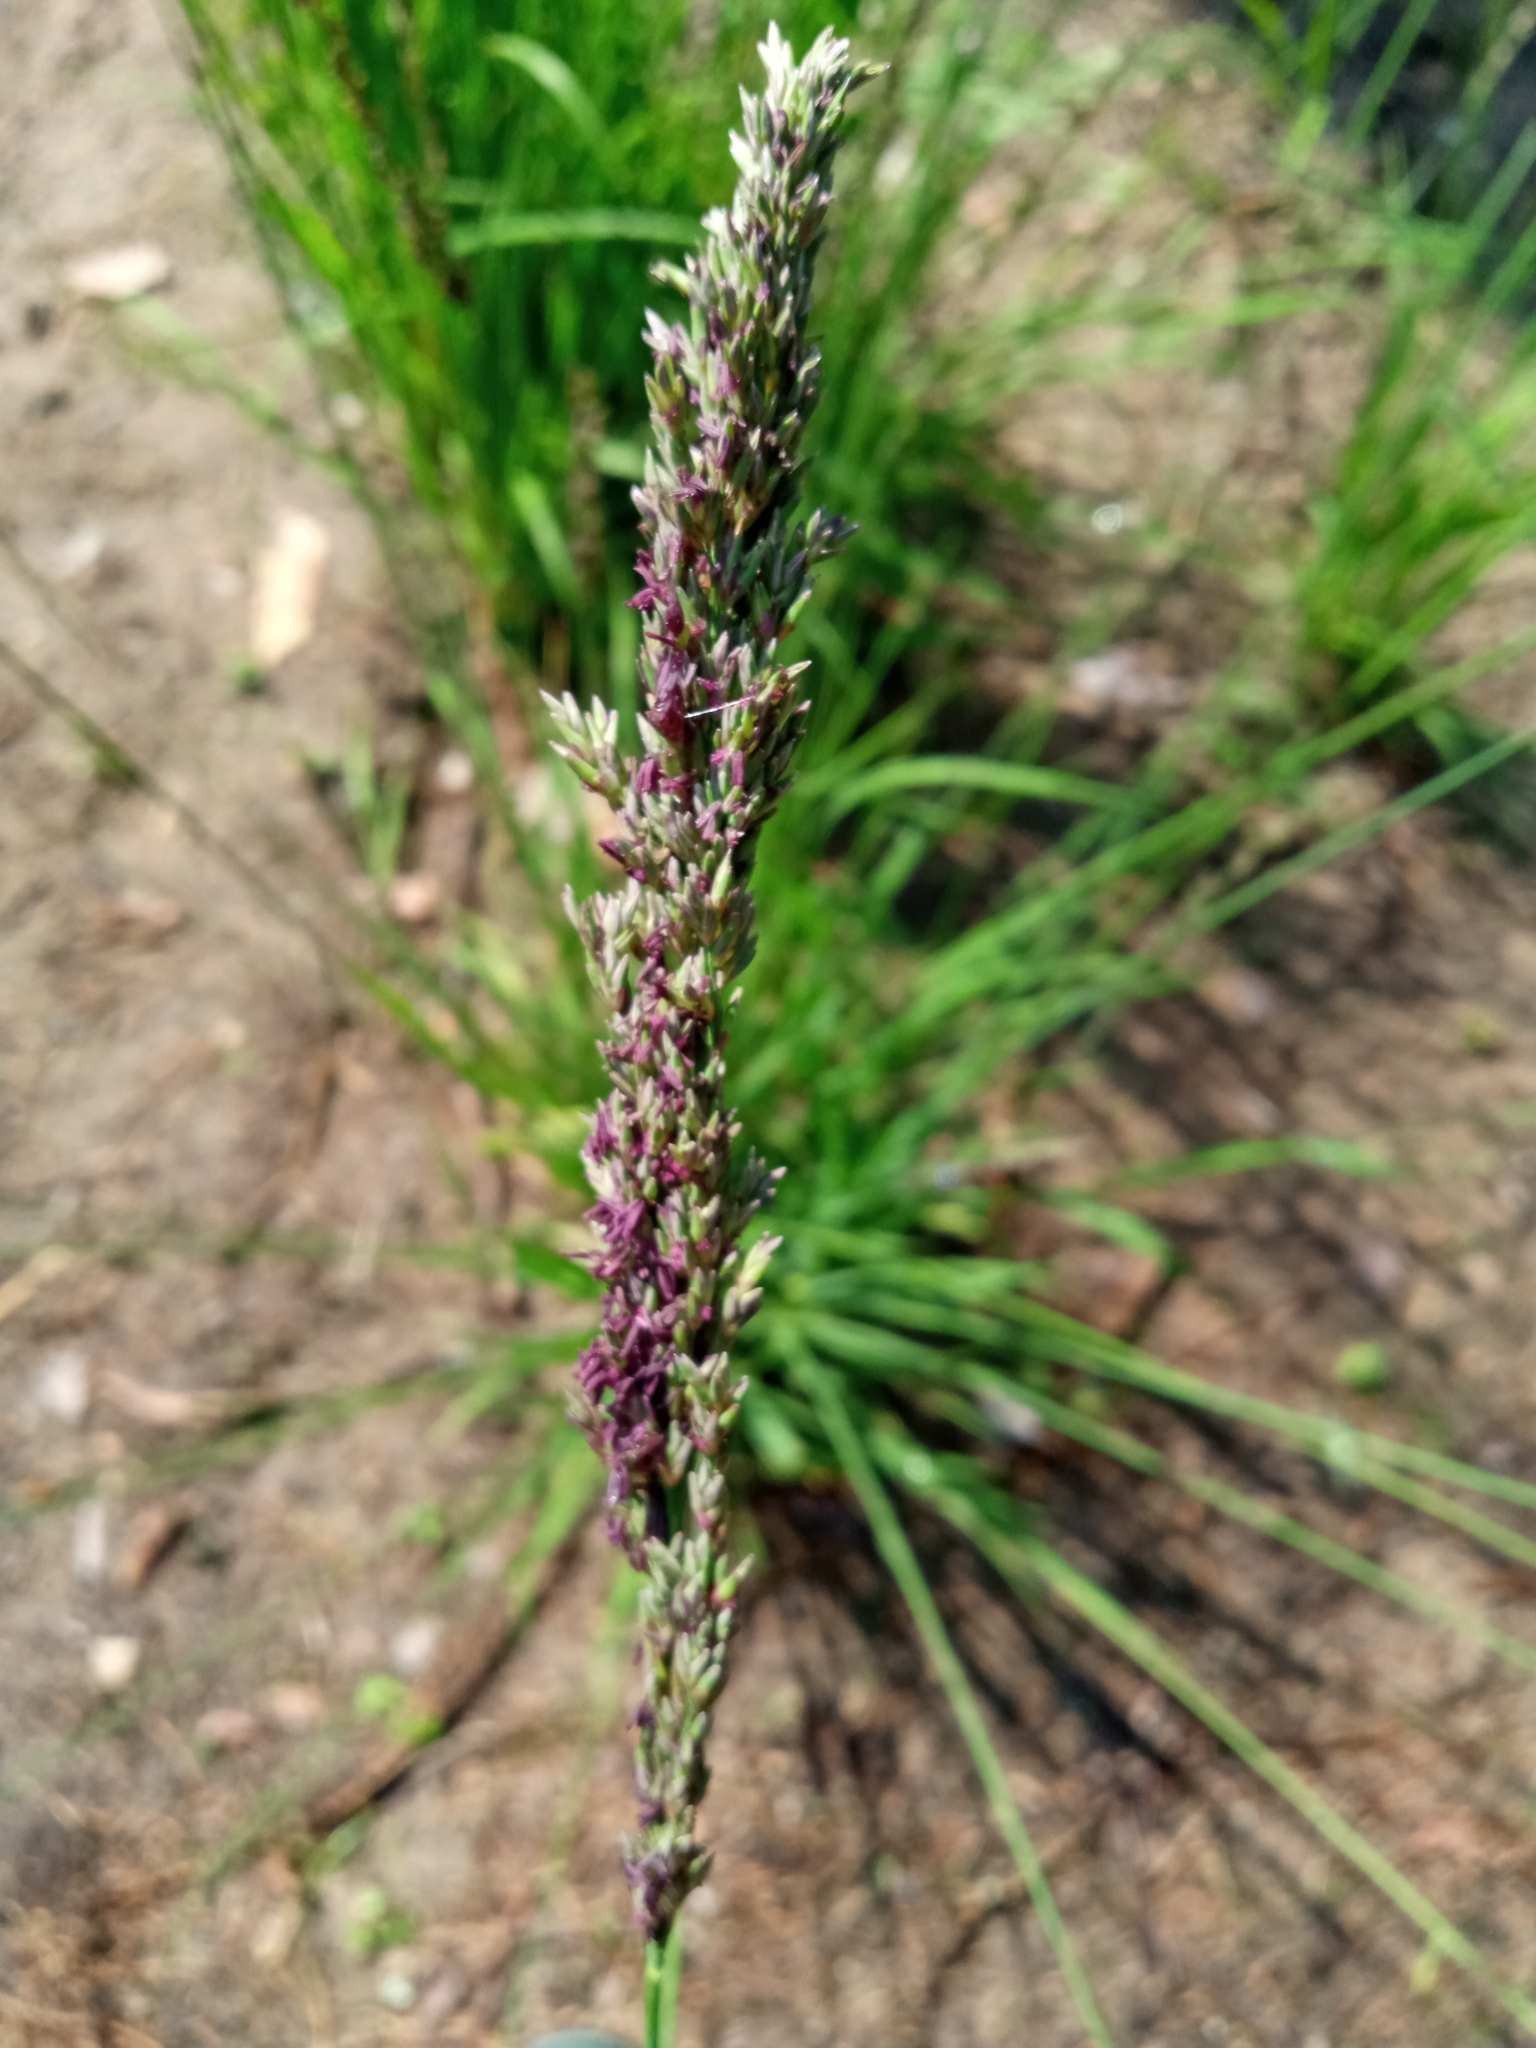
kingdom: Plantae
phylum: Tracheophyta
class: Liliopsida
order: Poales
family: Poaceae
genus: Molinia
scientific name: Molinia caerulea
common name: Purple moor-grass
